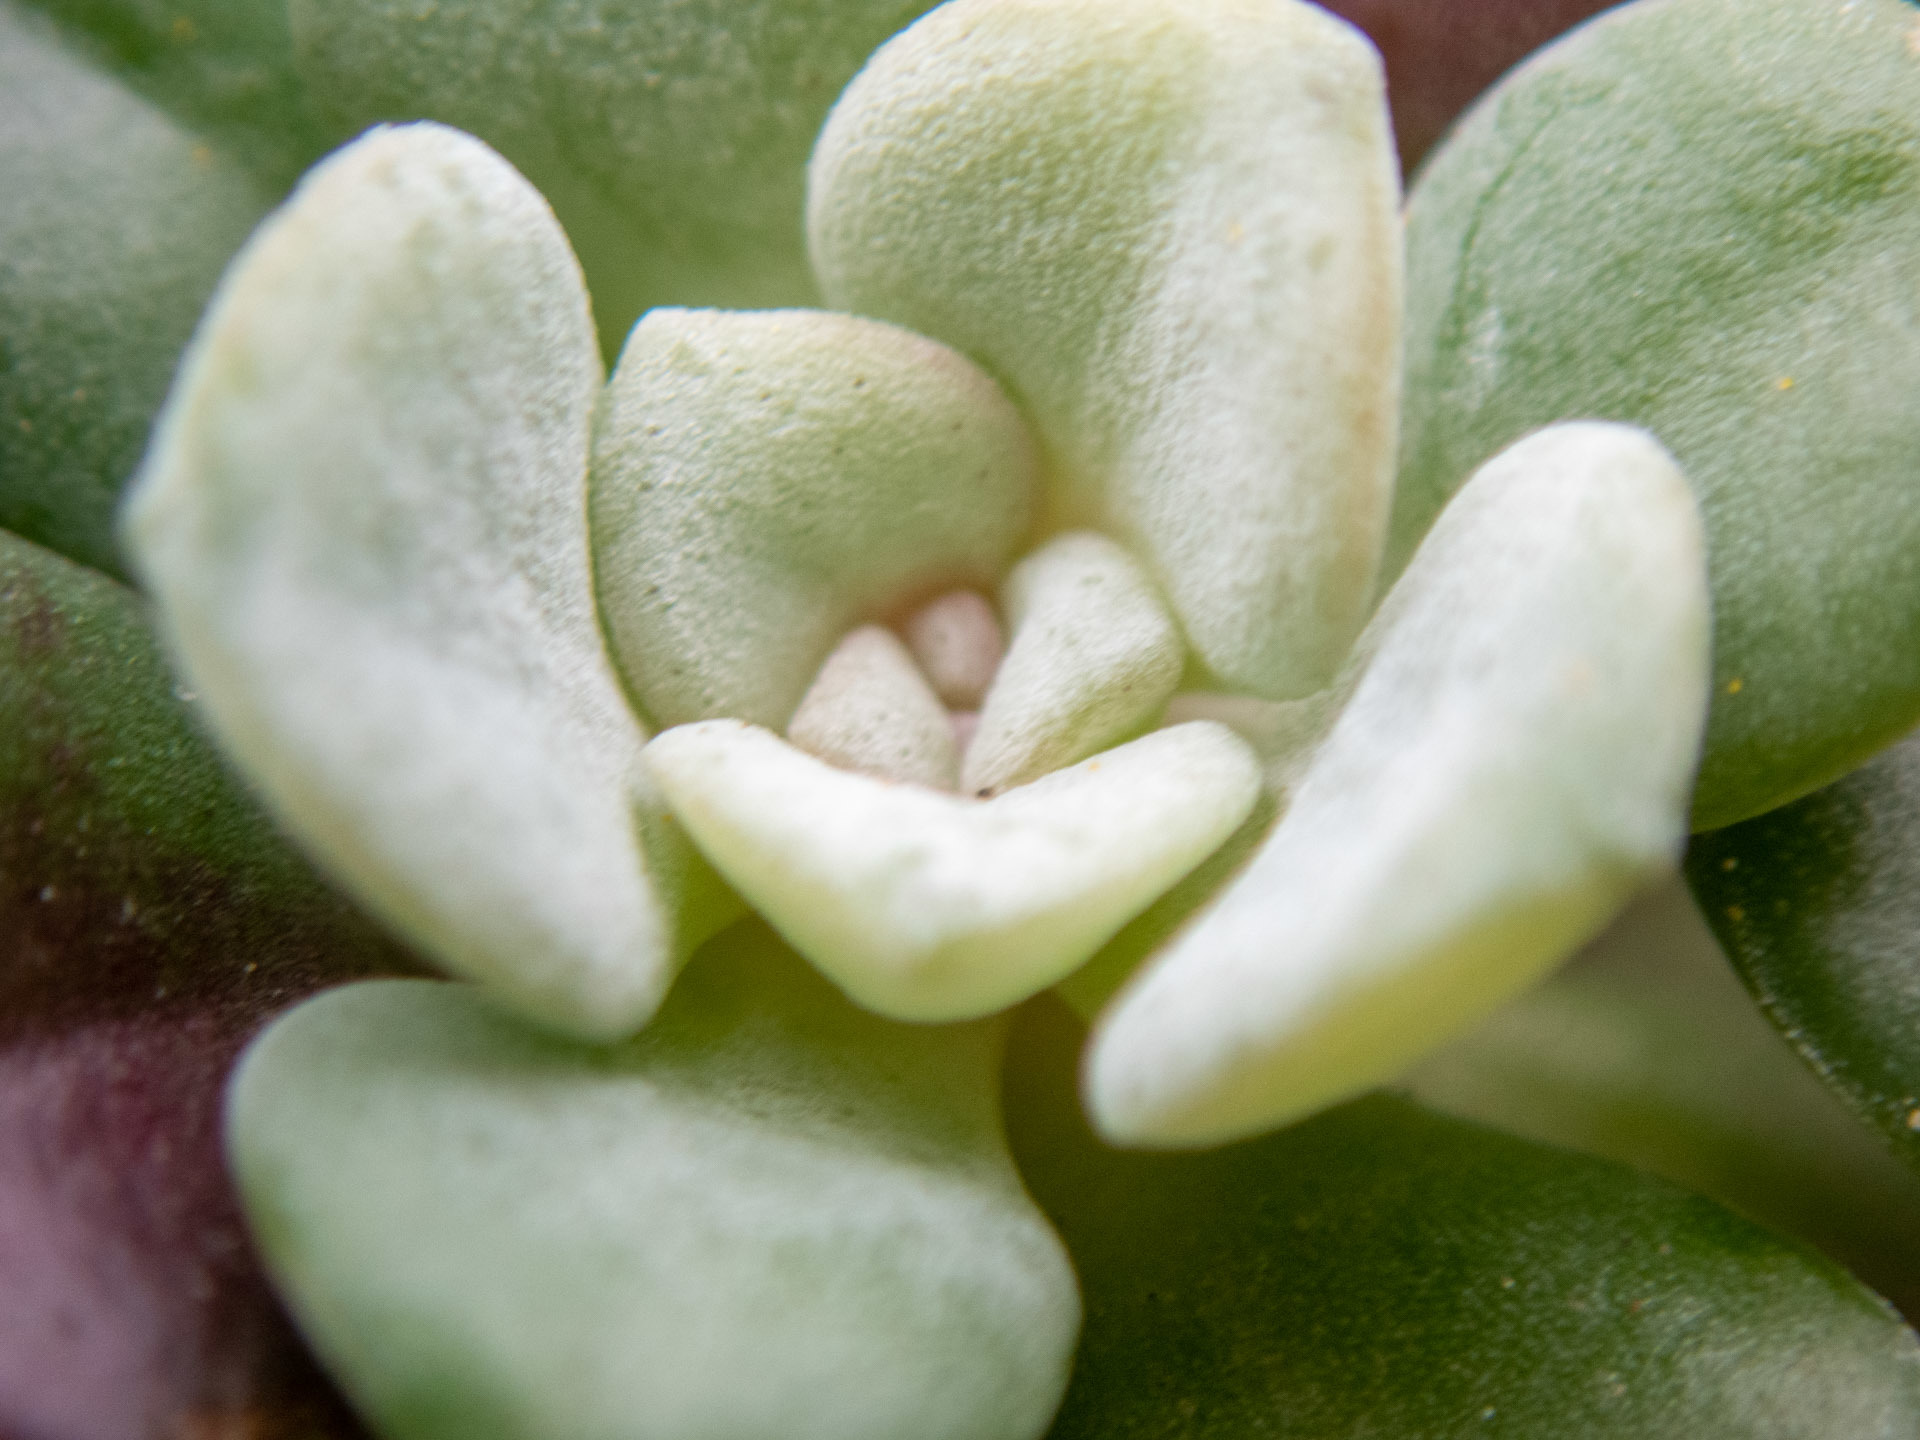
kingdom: Plantae
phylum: Tracheophyta
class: Magnoliopsida
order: Saxifragales
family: Crassulaceae
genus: Sedum
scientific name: Sedum spathulifolium
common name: Colorado stonecrop
